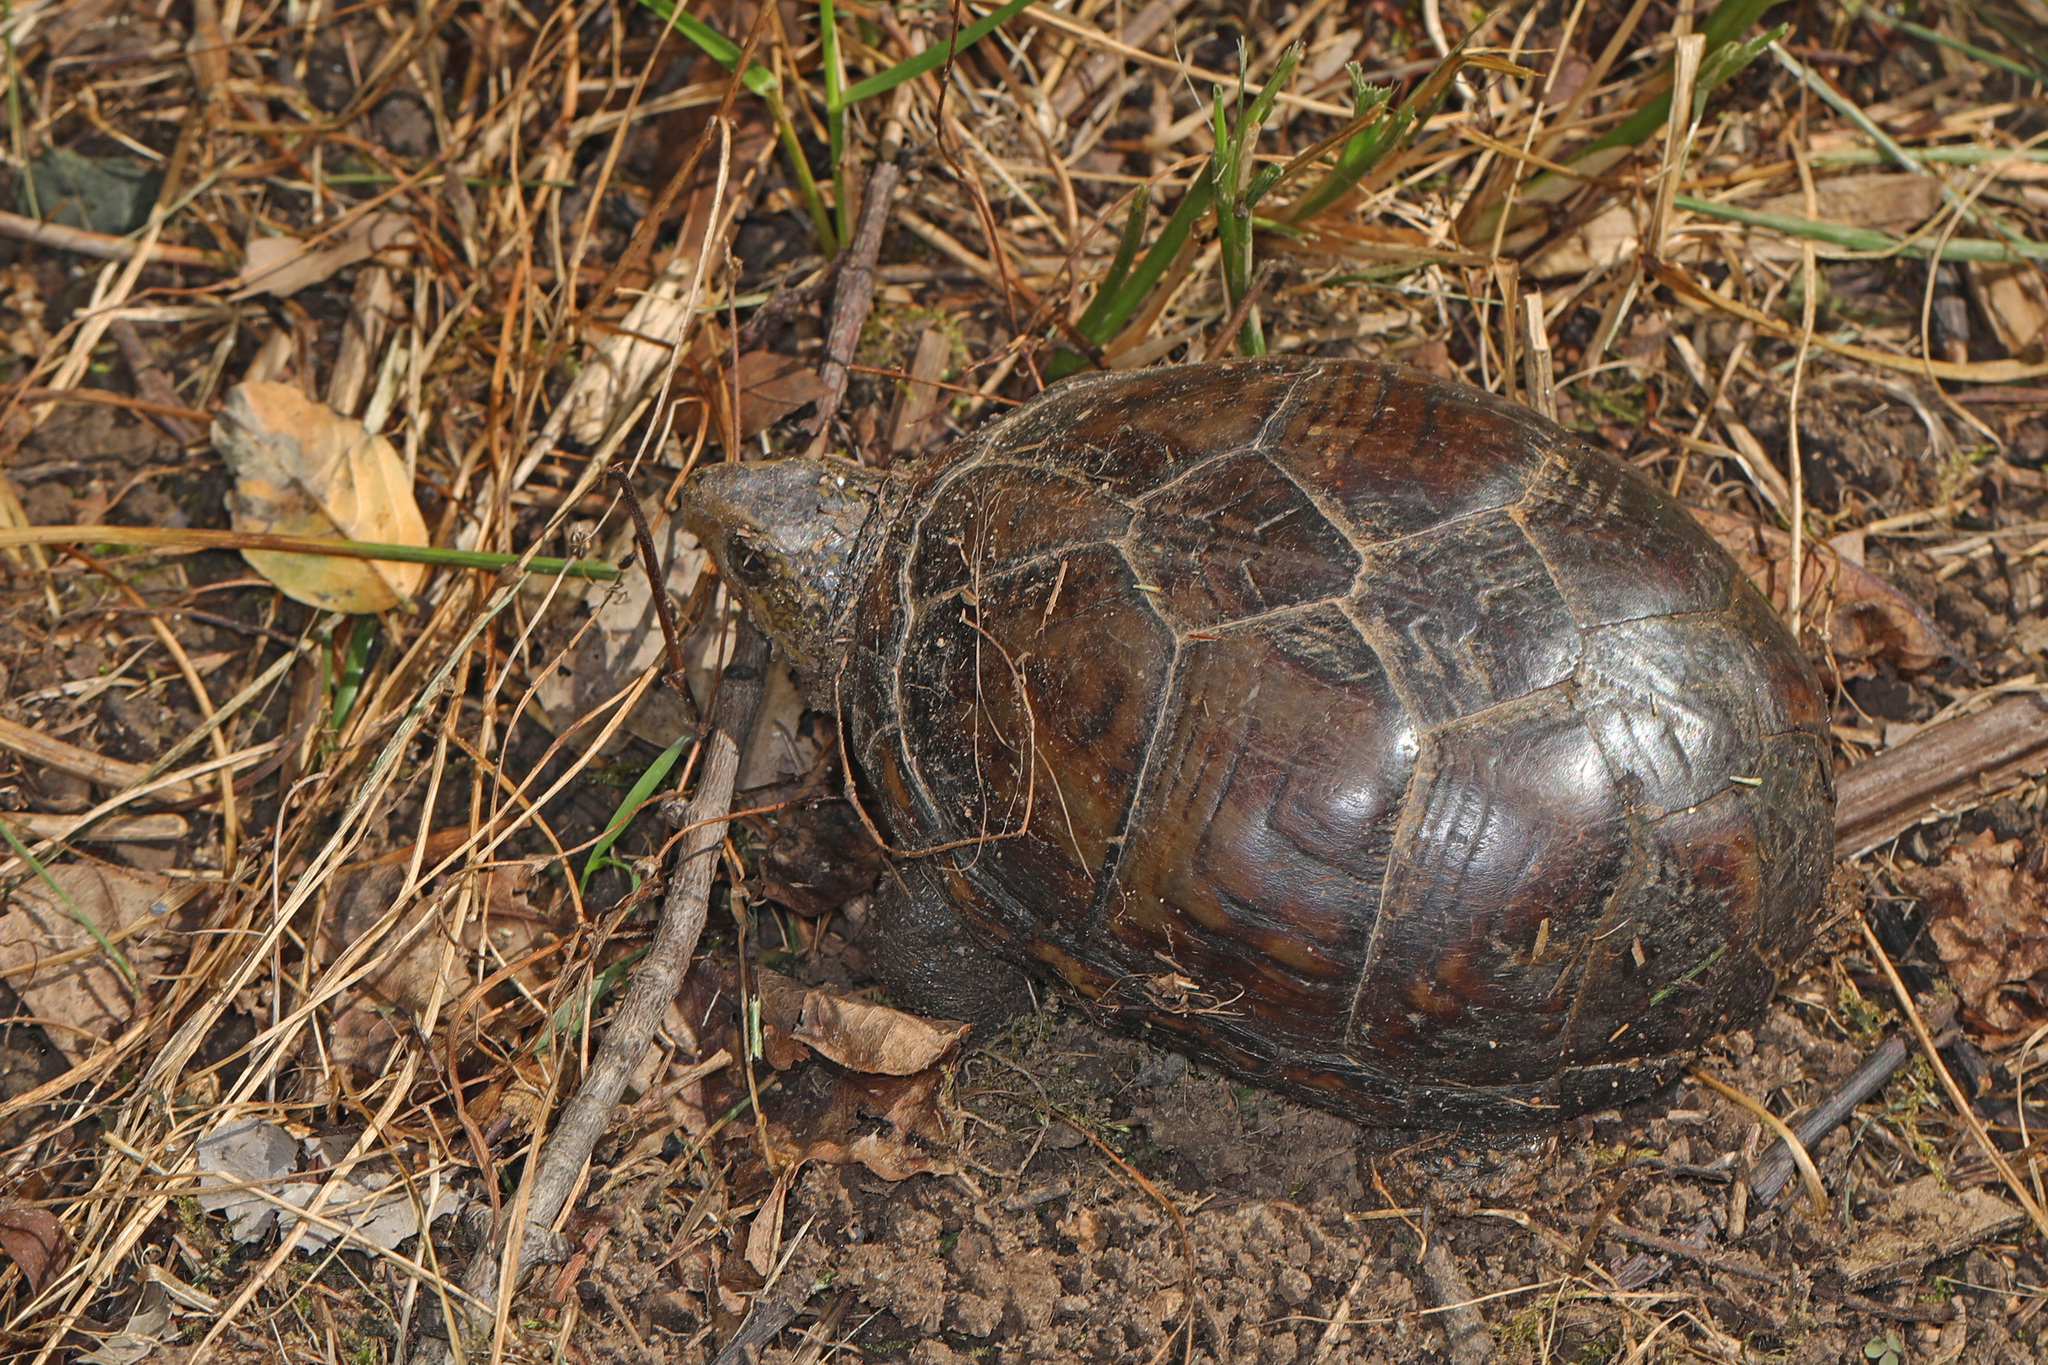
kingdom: Animalia
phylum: Chordata
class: Testudines
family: Kinosternidae
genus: Kinosternon
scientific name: Kinosternon subrubrum
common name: Eastern mud turtle
